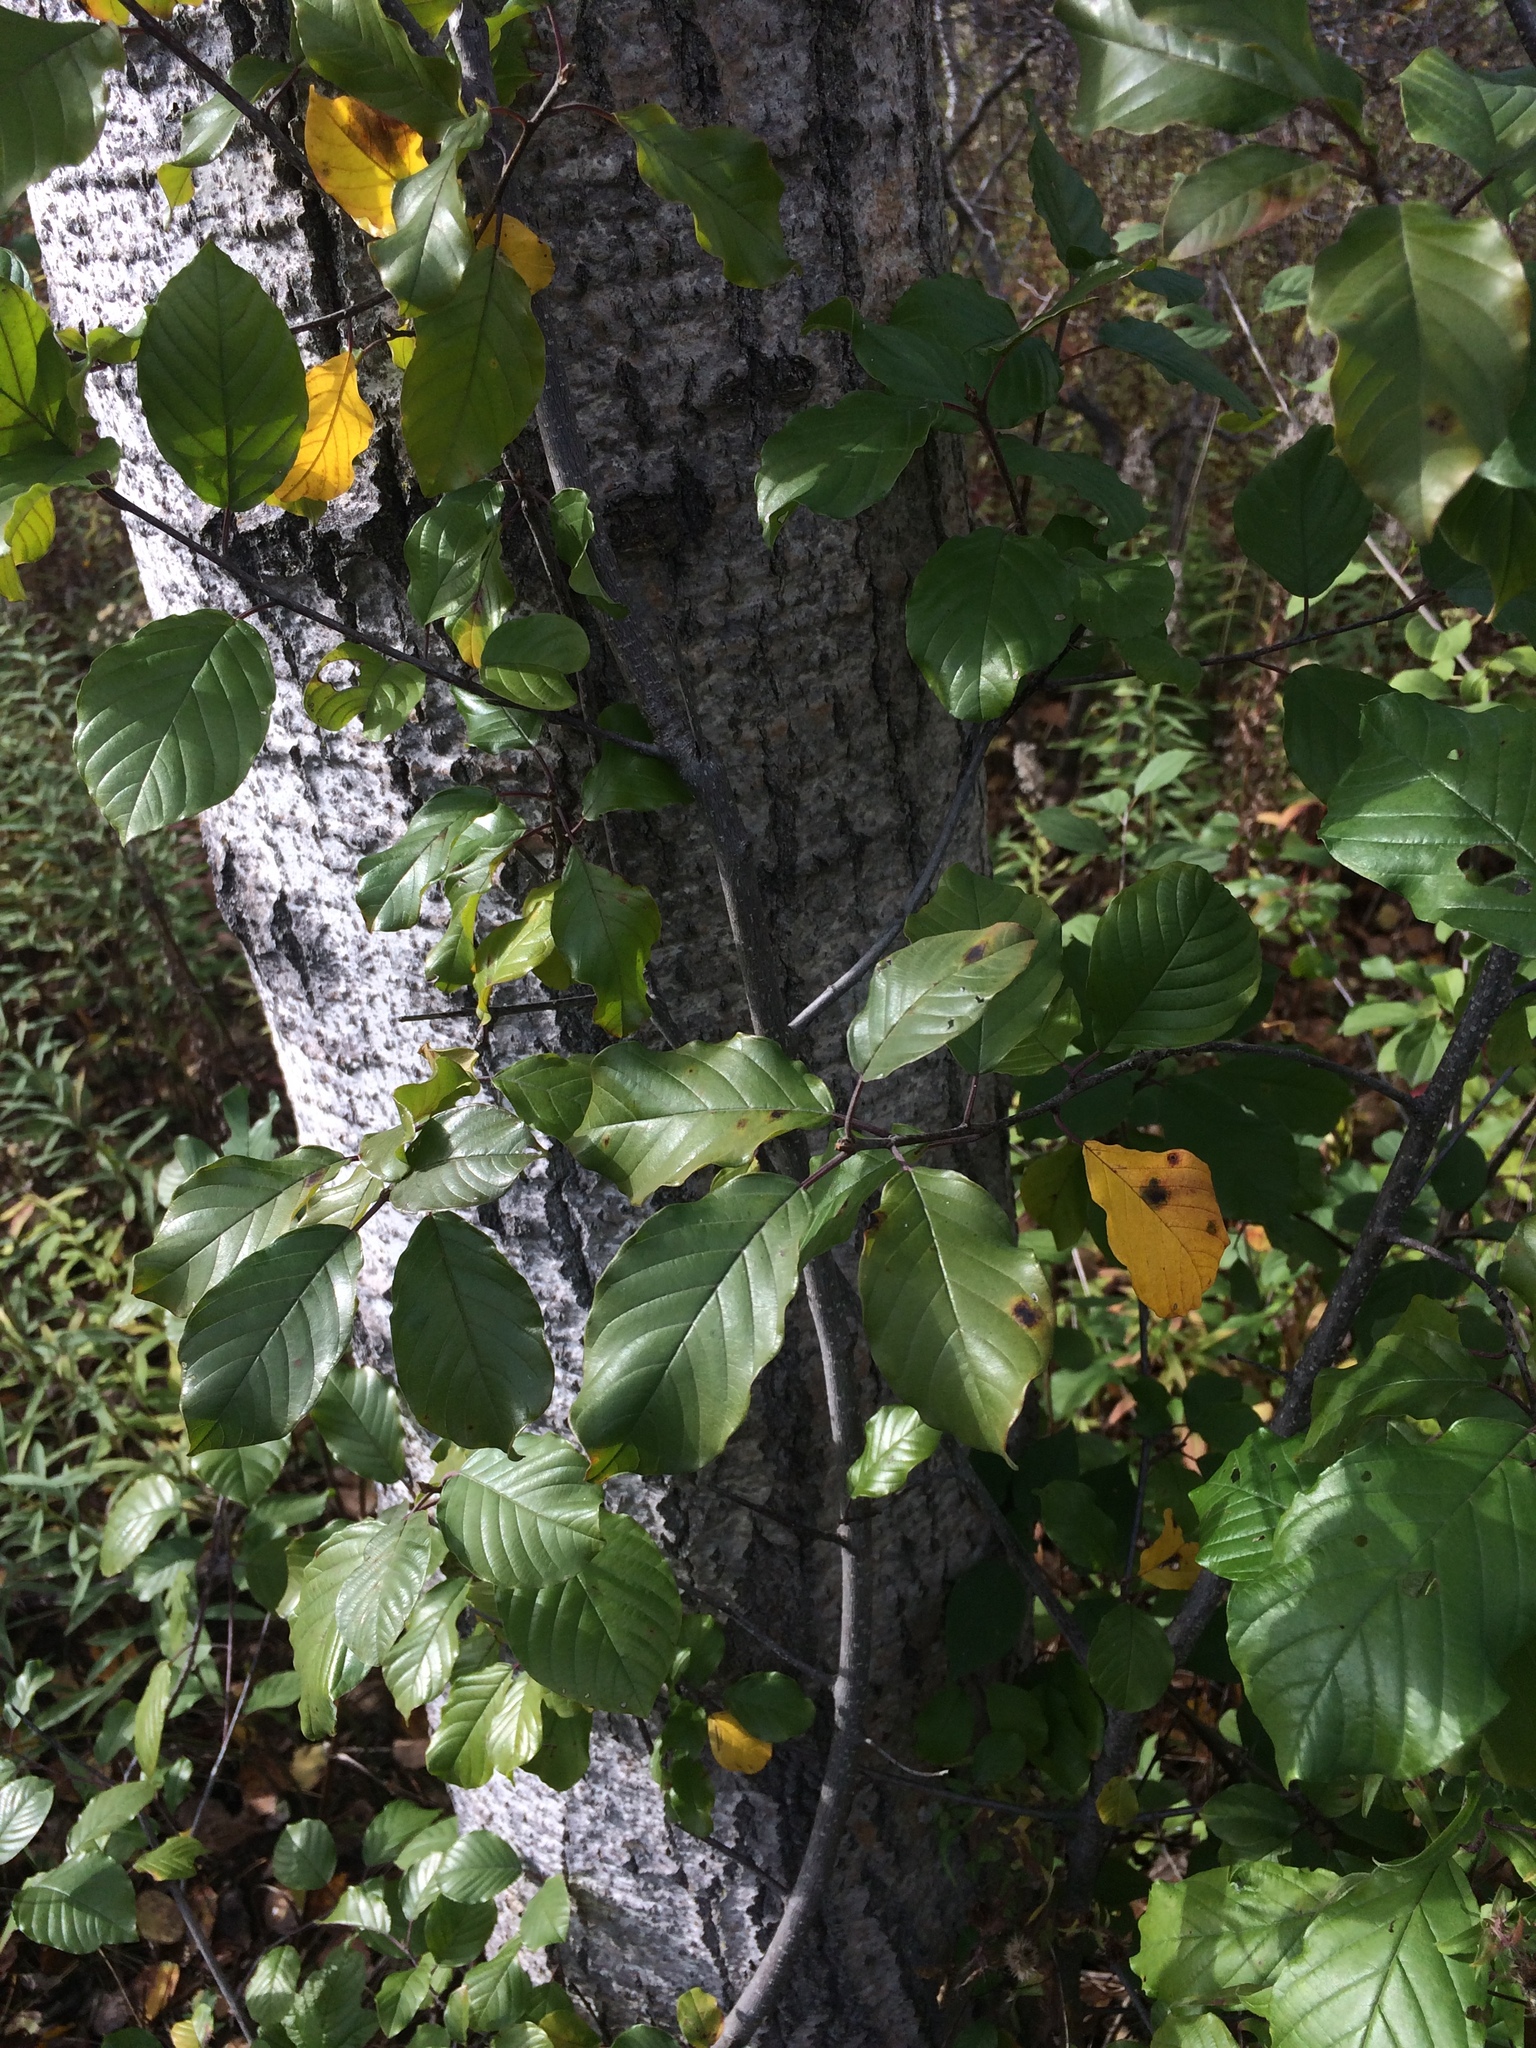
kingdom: Plantae
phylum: Tracheophyta
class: Magnoliopsida
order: Rosales
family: Rhamnaceae
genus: Frangula
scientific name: Frangula alnus
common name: Alder buckthorn
